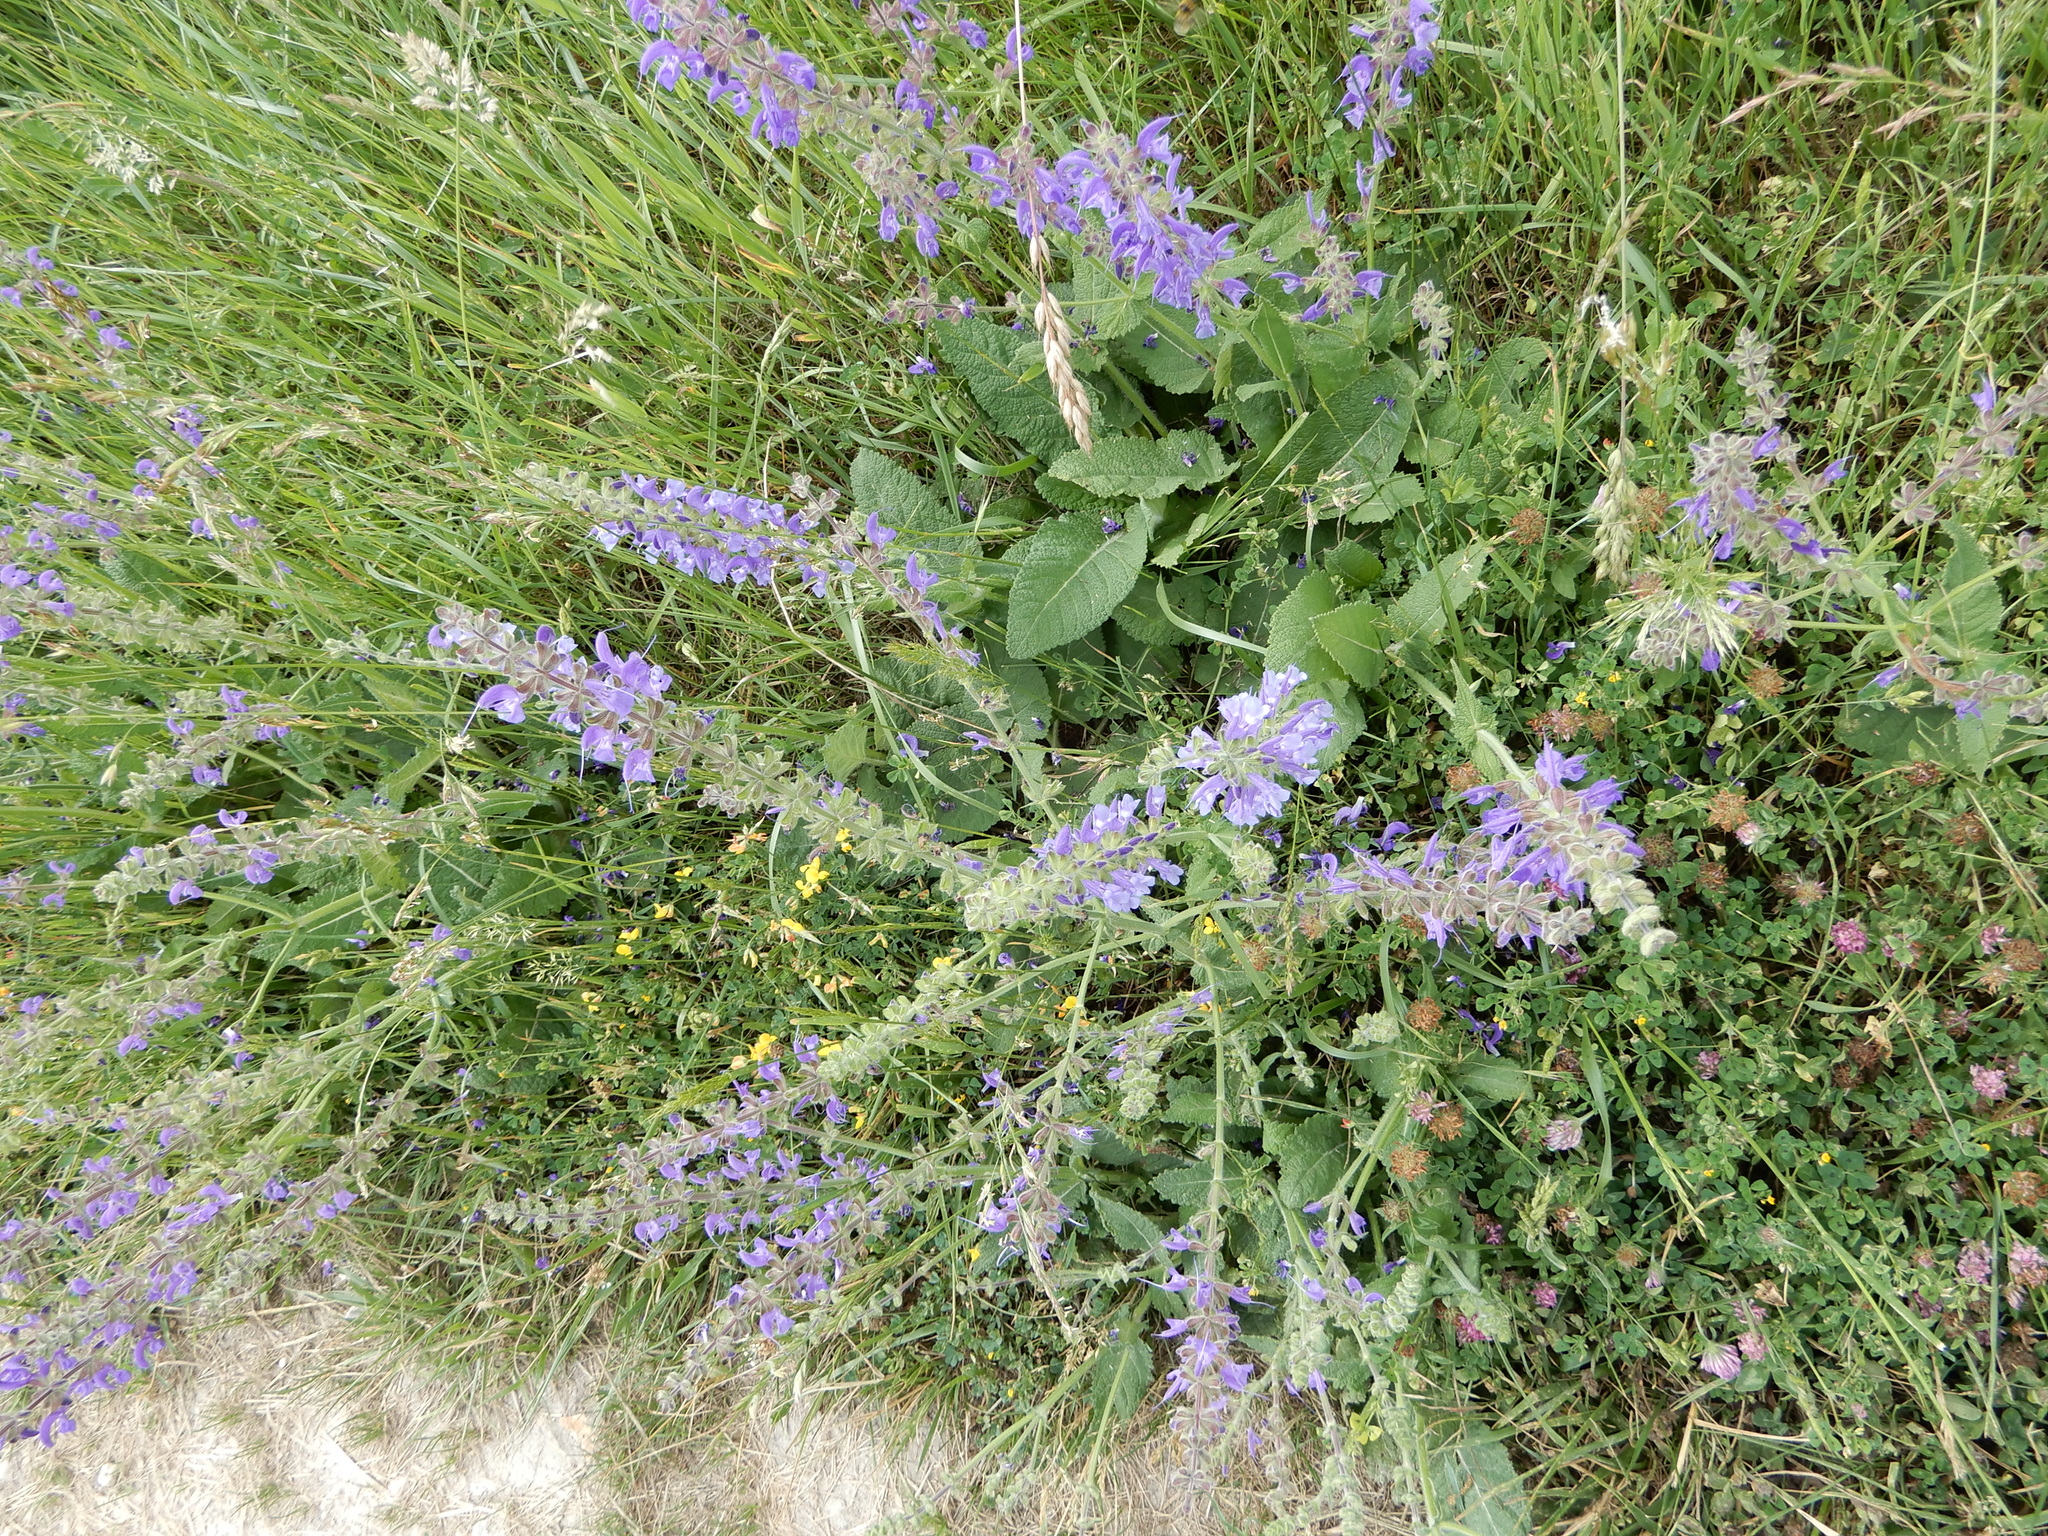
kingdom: Plantae
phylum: Tracheophyta
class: Magnoliopsida
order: Lamiales
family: Lamiaceae
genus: Salvia
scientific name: Salvia pratensis
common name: Meadow sage
